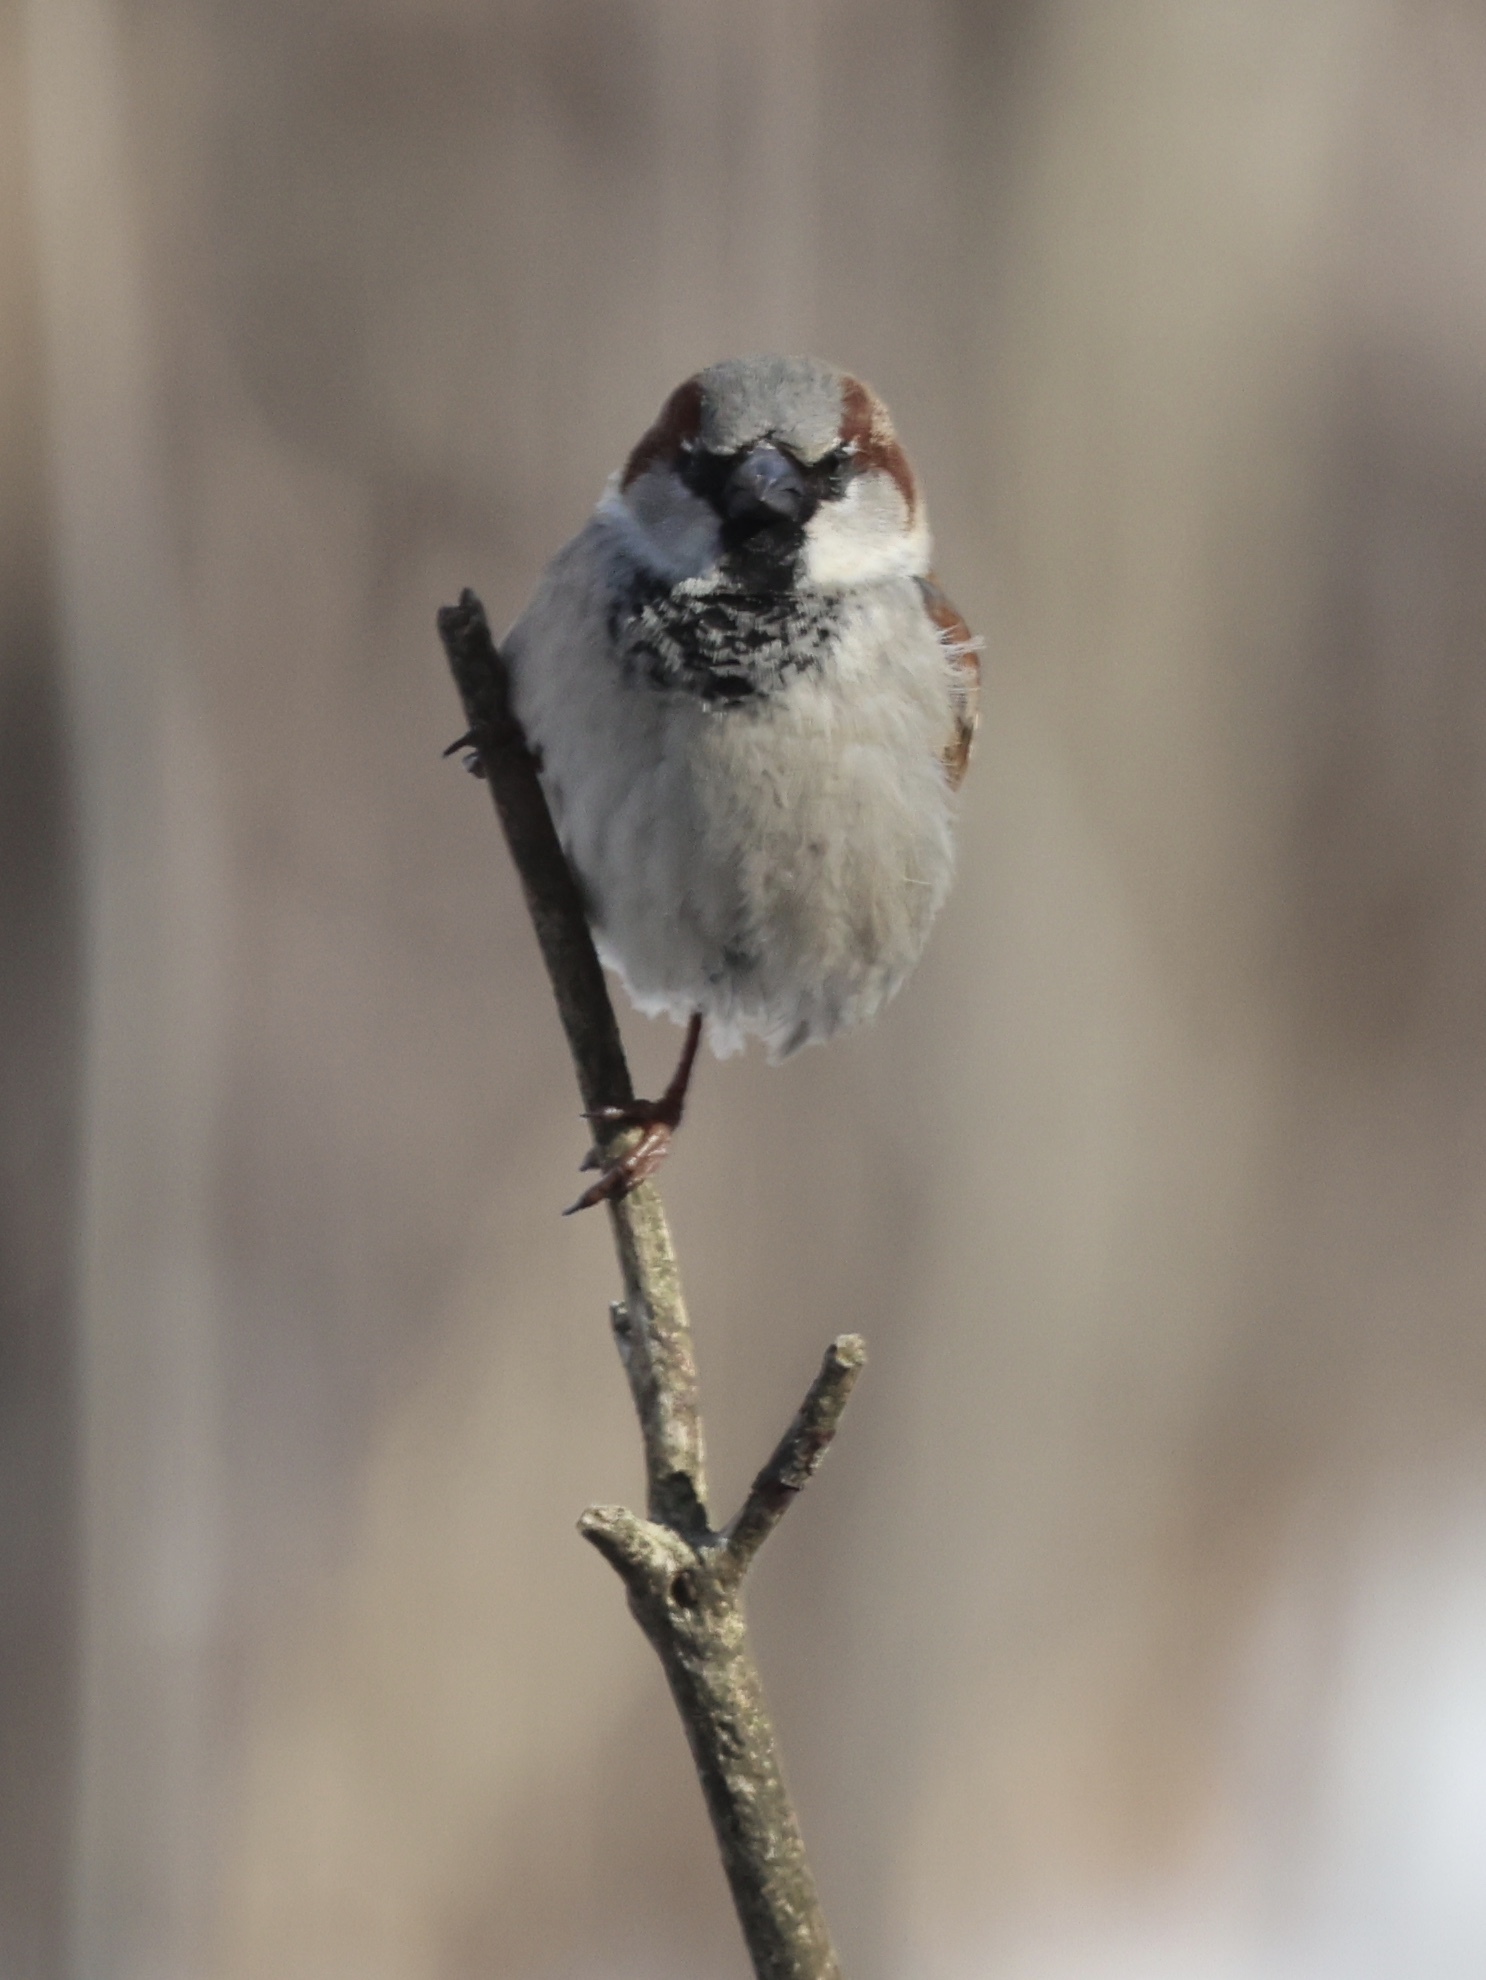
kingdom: Animalia
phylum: Chordata
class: Aves
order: Passeriformes
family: Passeridae
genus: Passer
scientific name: Passer domesticus
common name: House sparrow
